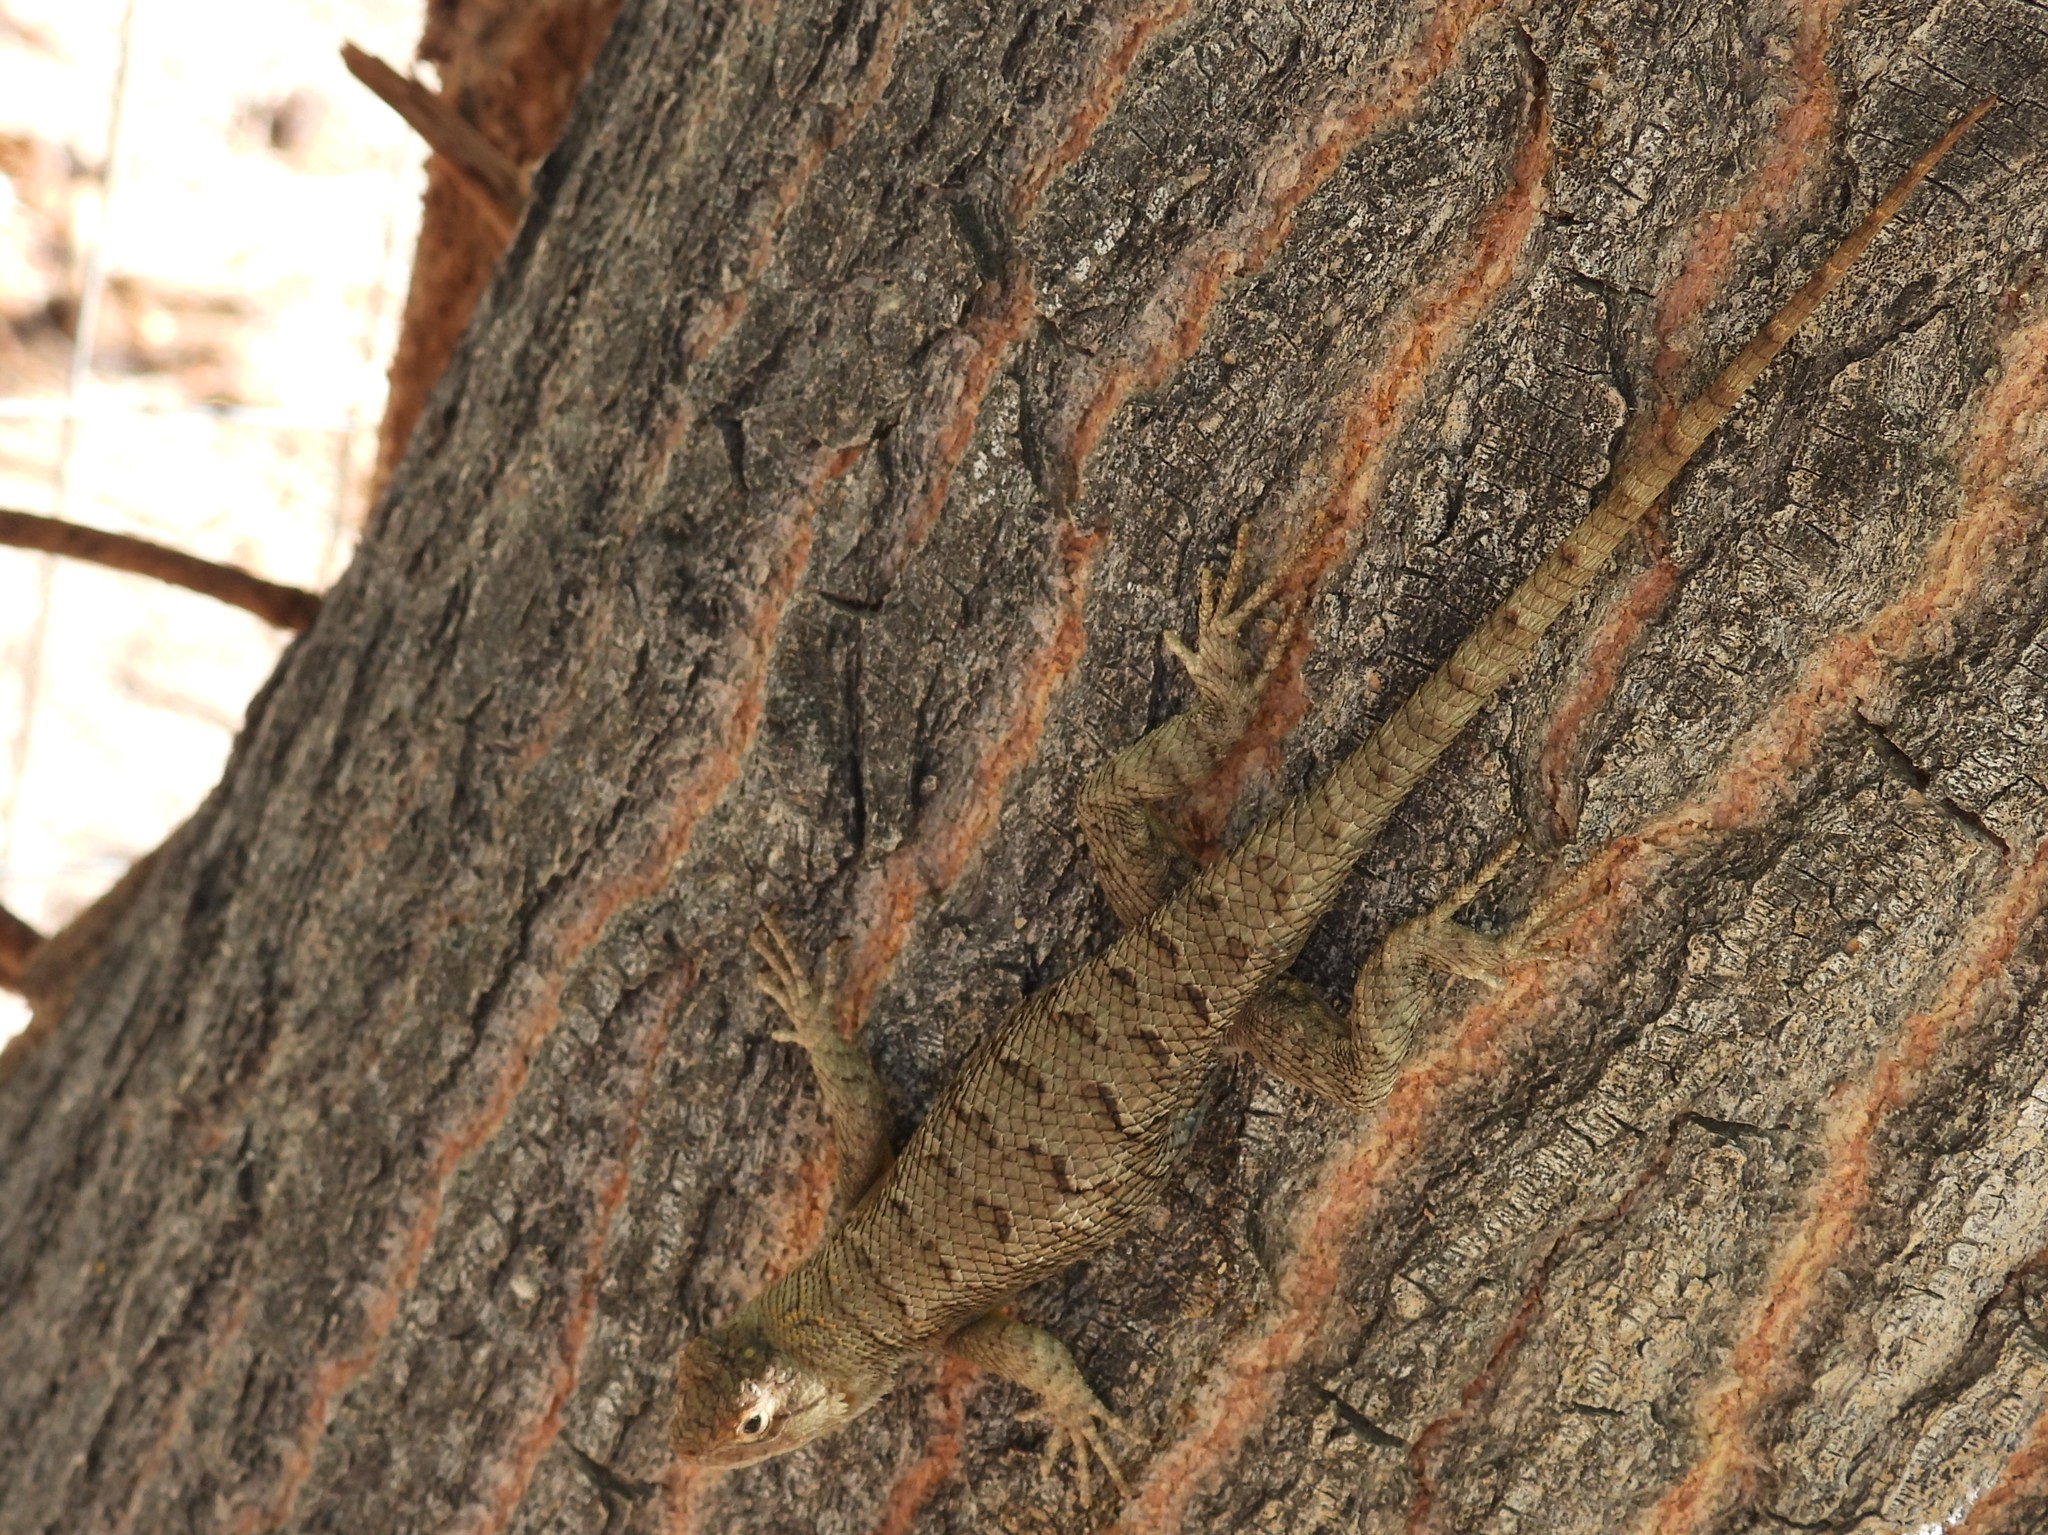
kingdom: Animalia
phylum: Chordata
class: Squamata
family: Phrynosomatidae
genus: Sceloporus
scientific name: Sceloporus occidentalis
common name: Western fence lizard
